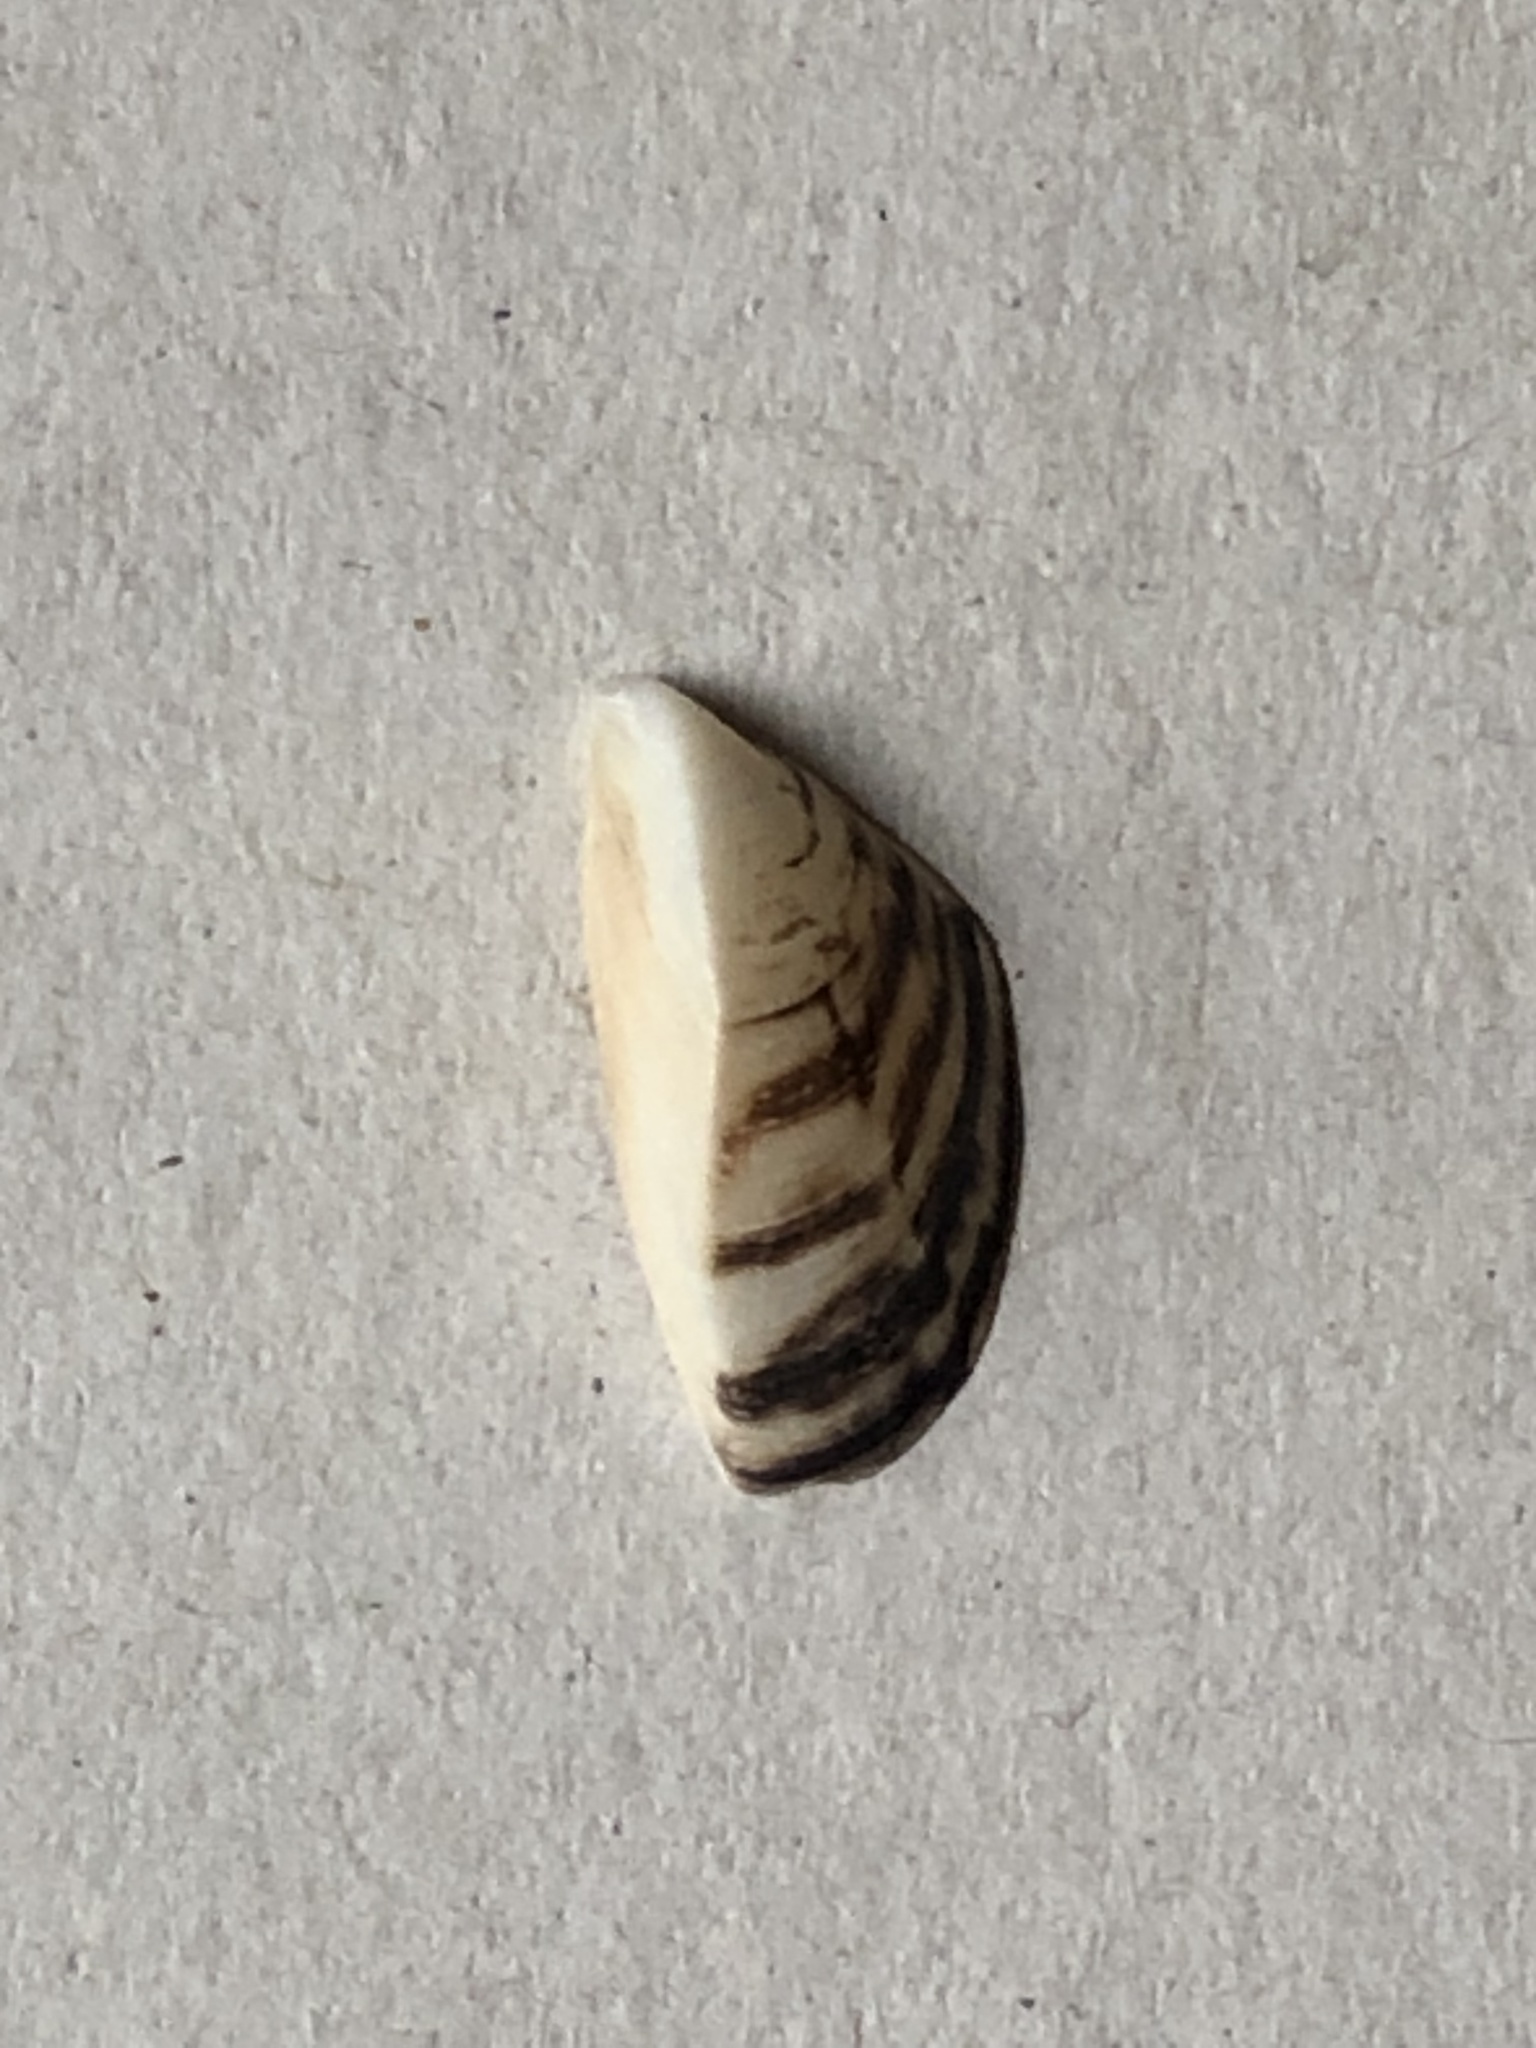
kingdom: Animalia
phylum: Mollusca
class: Bivalvia
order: Myida
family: Dreissenidae
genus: Dreissena
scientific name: Dreissena polymorpha
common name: Zebra mussel
